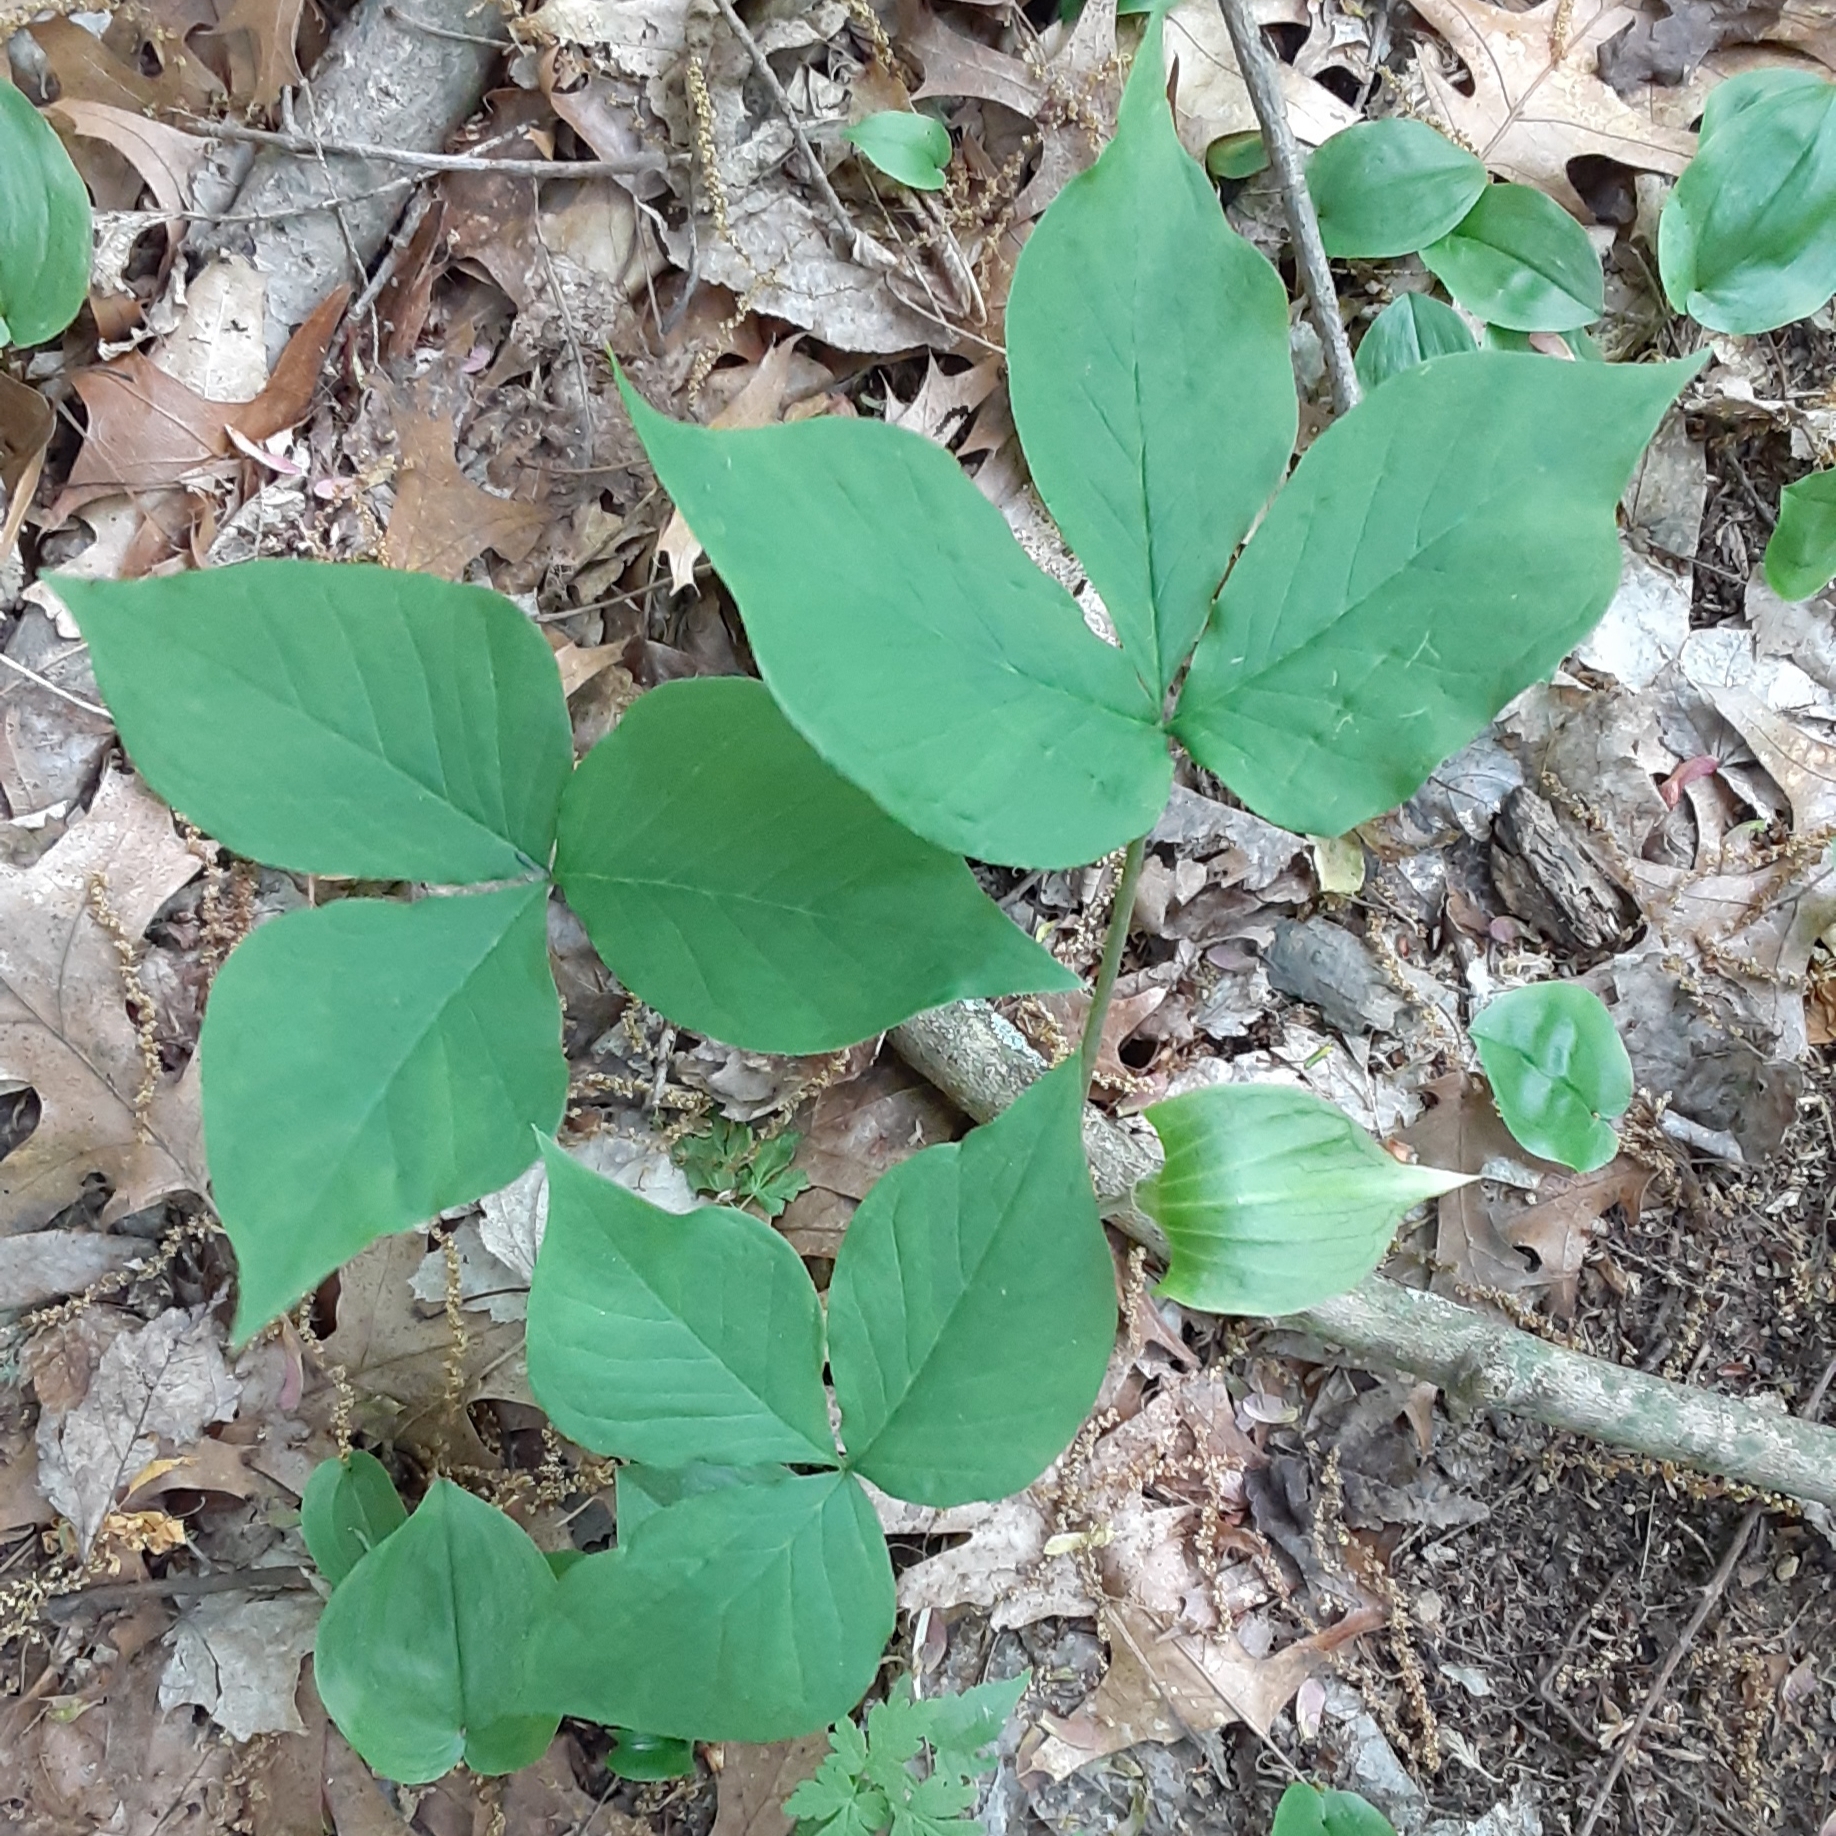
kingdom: Plantae
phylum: Tracheophyta
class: Liliopsida
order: Alismatales
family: Araceae
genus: Arisaema
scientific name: Arisaema triphyllum
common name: Jack-in-the-pulpit
